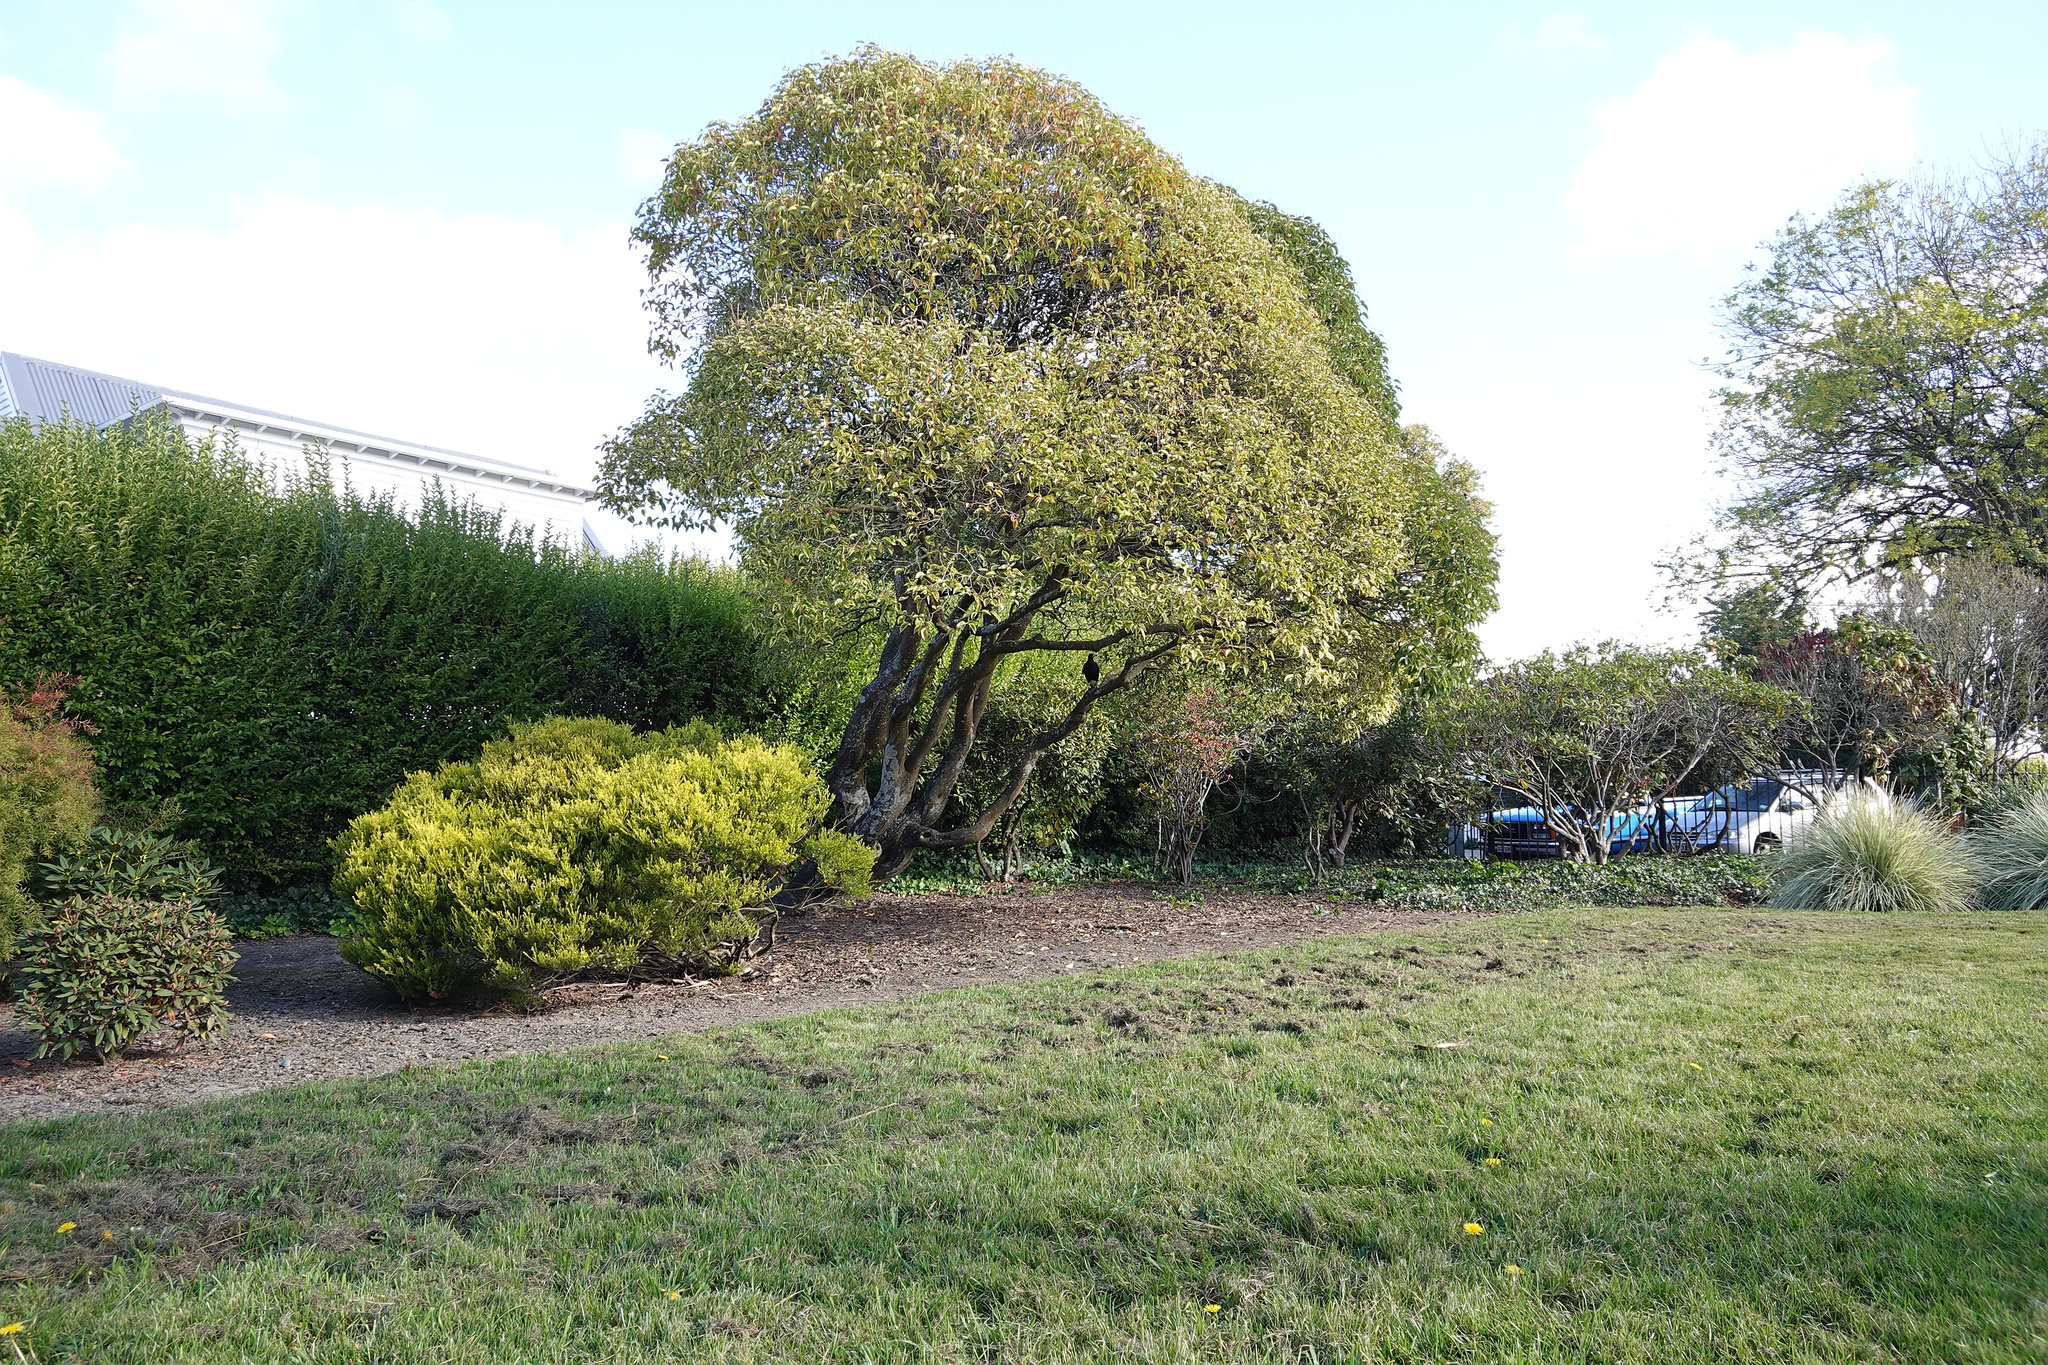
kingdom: Animalia
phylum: Chordata
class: Aves
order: Passeriformes
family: Cracticidae
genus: Gymnorhina
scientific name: Gymnorhina tibicen
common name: Australian magpie
